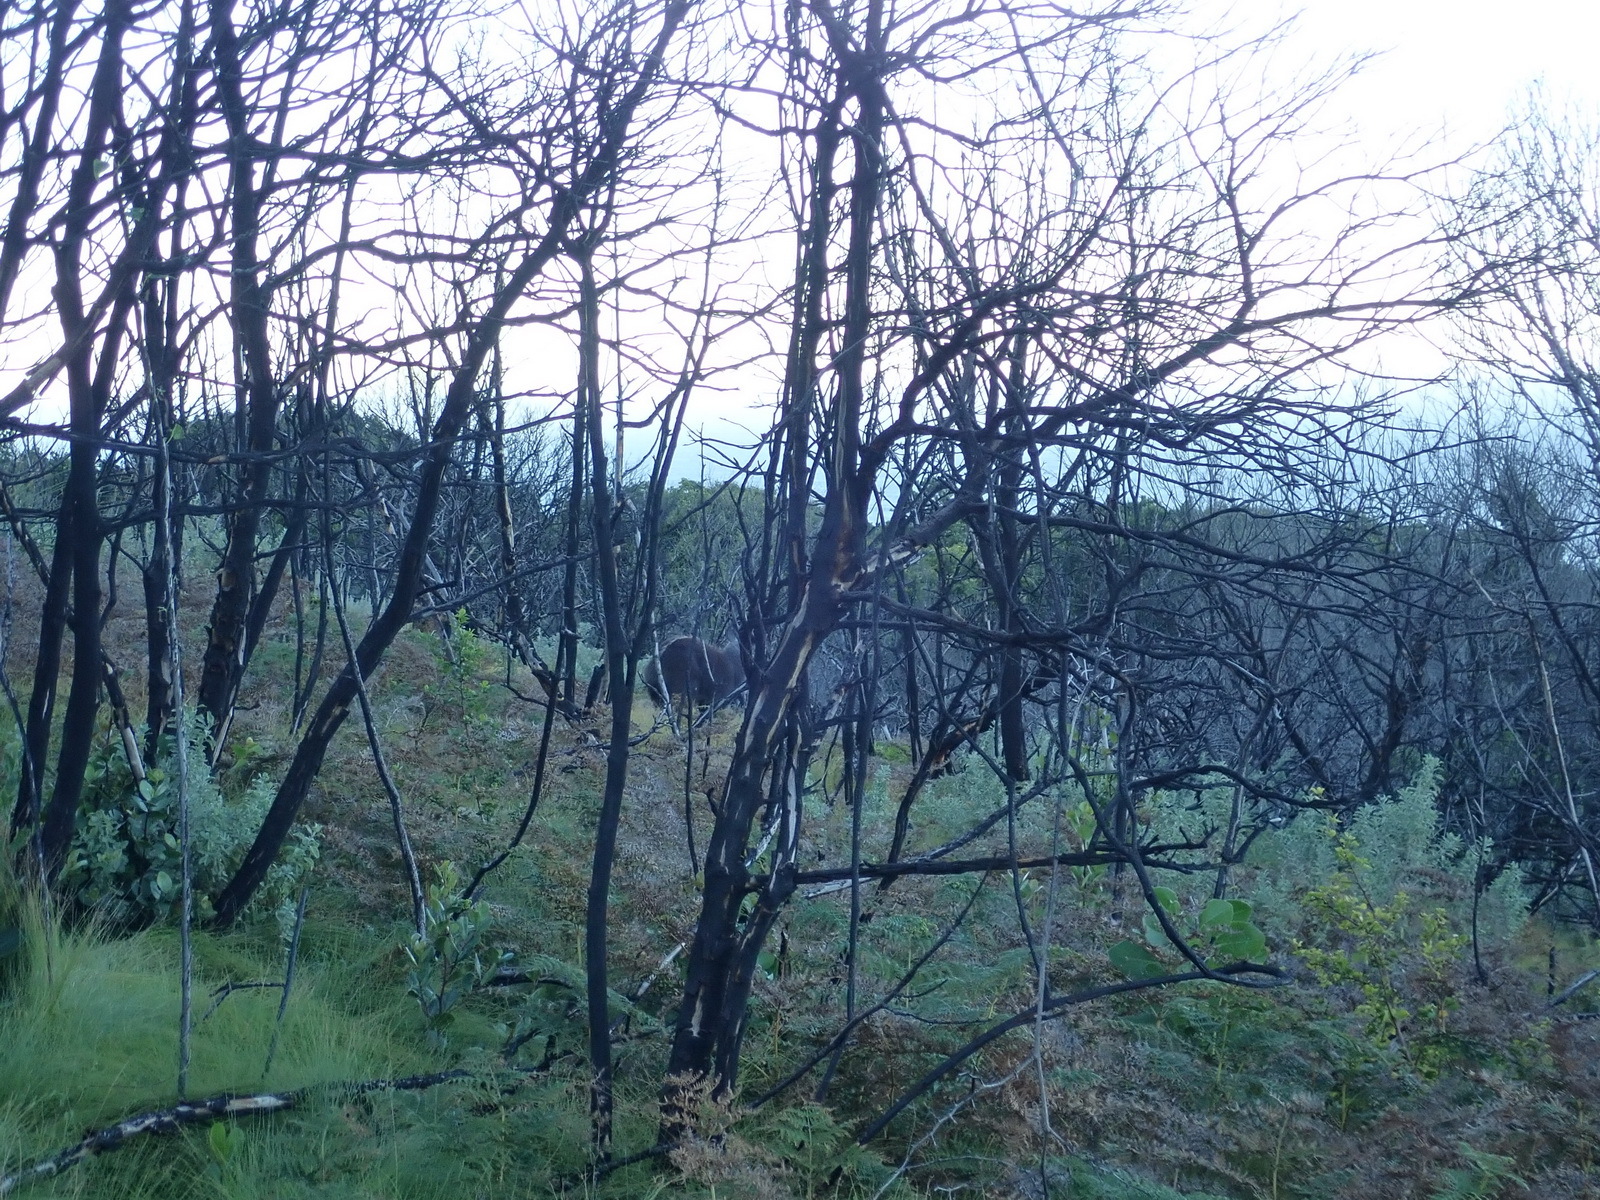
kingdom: Animalia
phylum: Chordata
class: Mammalia
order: Artiodactyla
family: Bovidae
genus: Tragelaphus
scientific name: Tragelaphus scriptus
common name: Bushbuck
